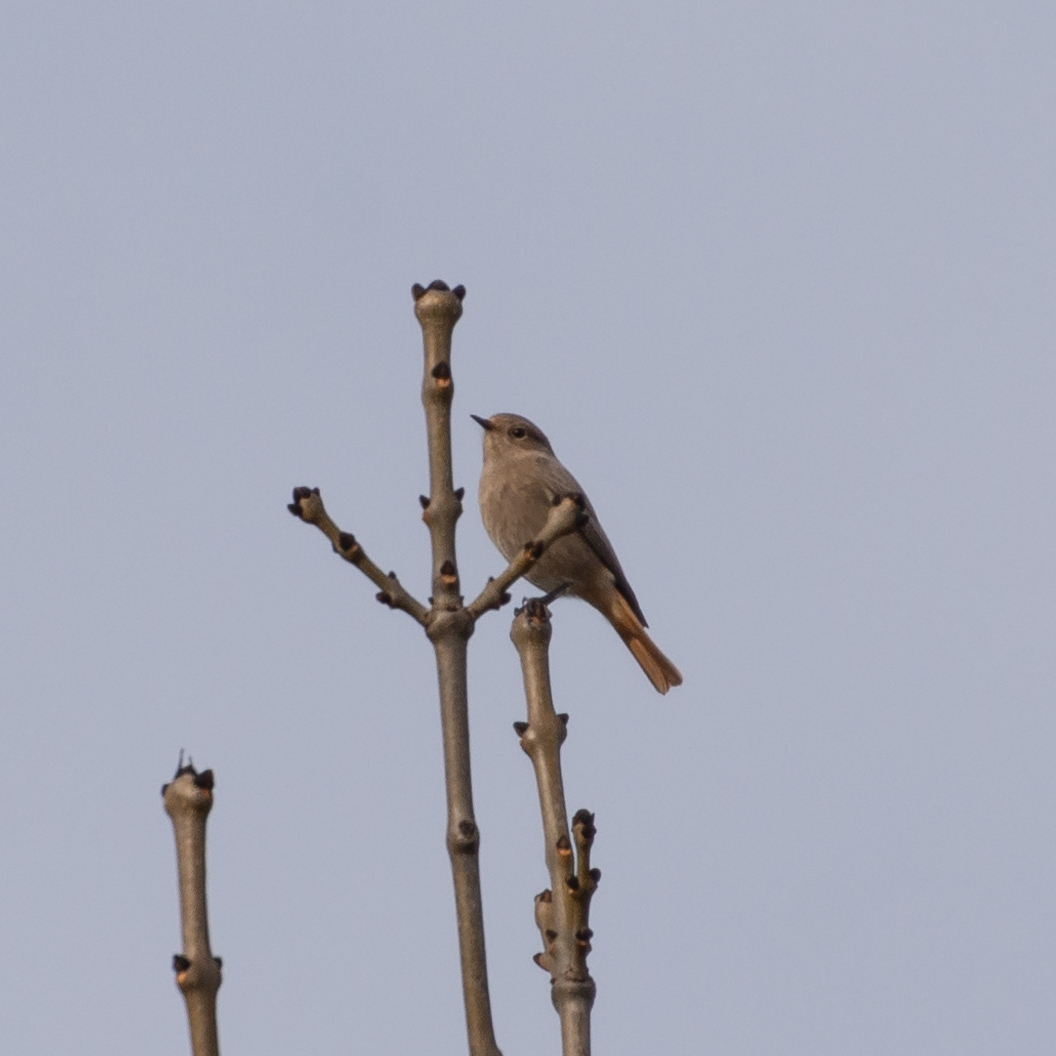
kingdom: Animalia
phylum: Chordata
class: Aves
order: Passeriformes
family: Muscicapidae
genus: Phoenicurus
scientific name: Phoenicurus ochruros
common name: Black redstart
